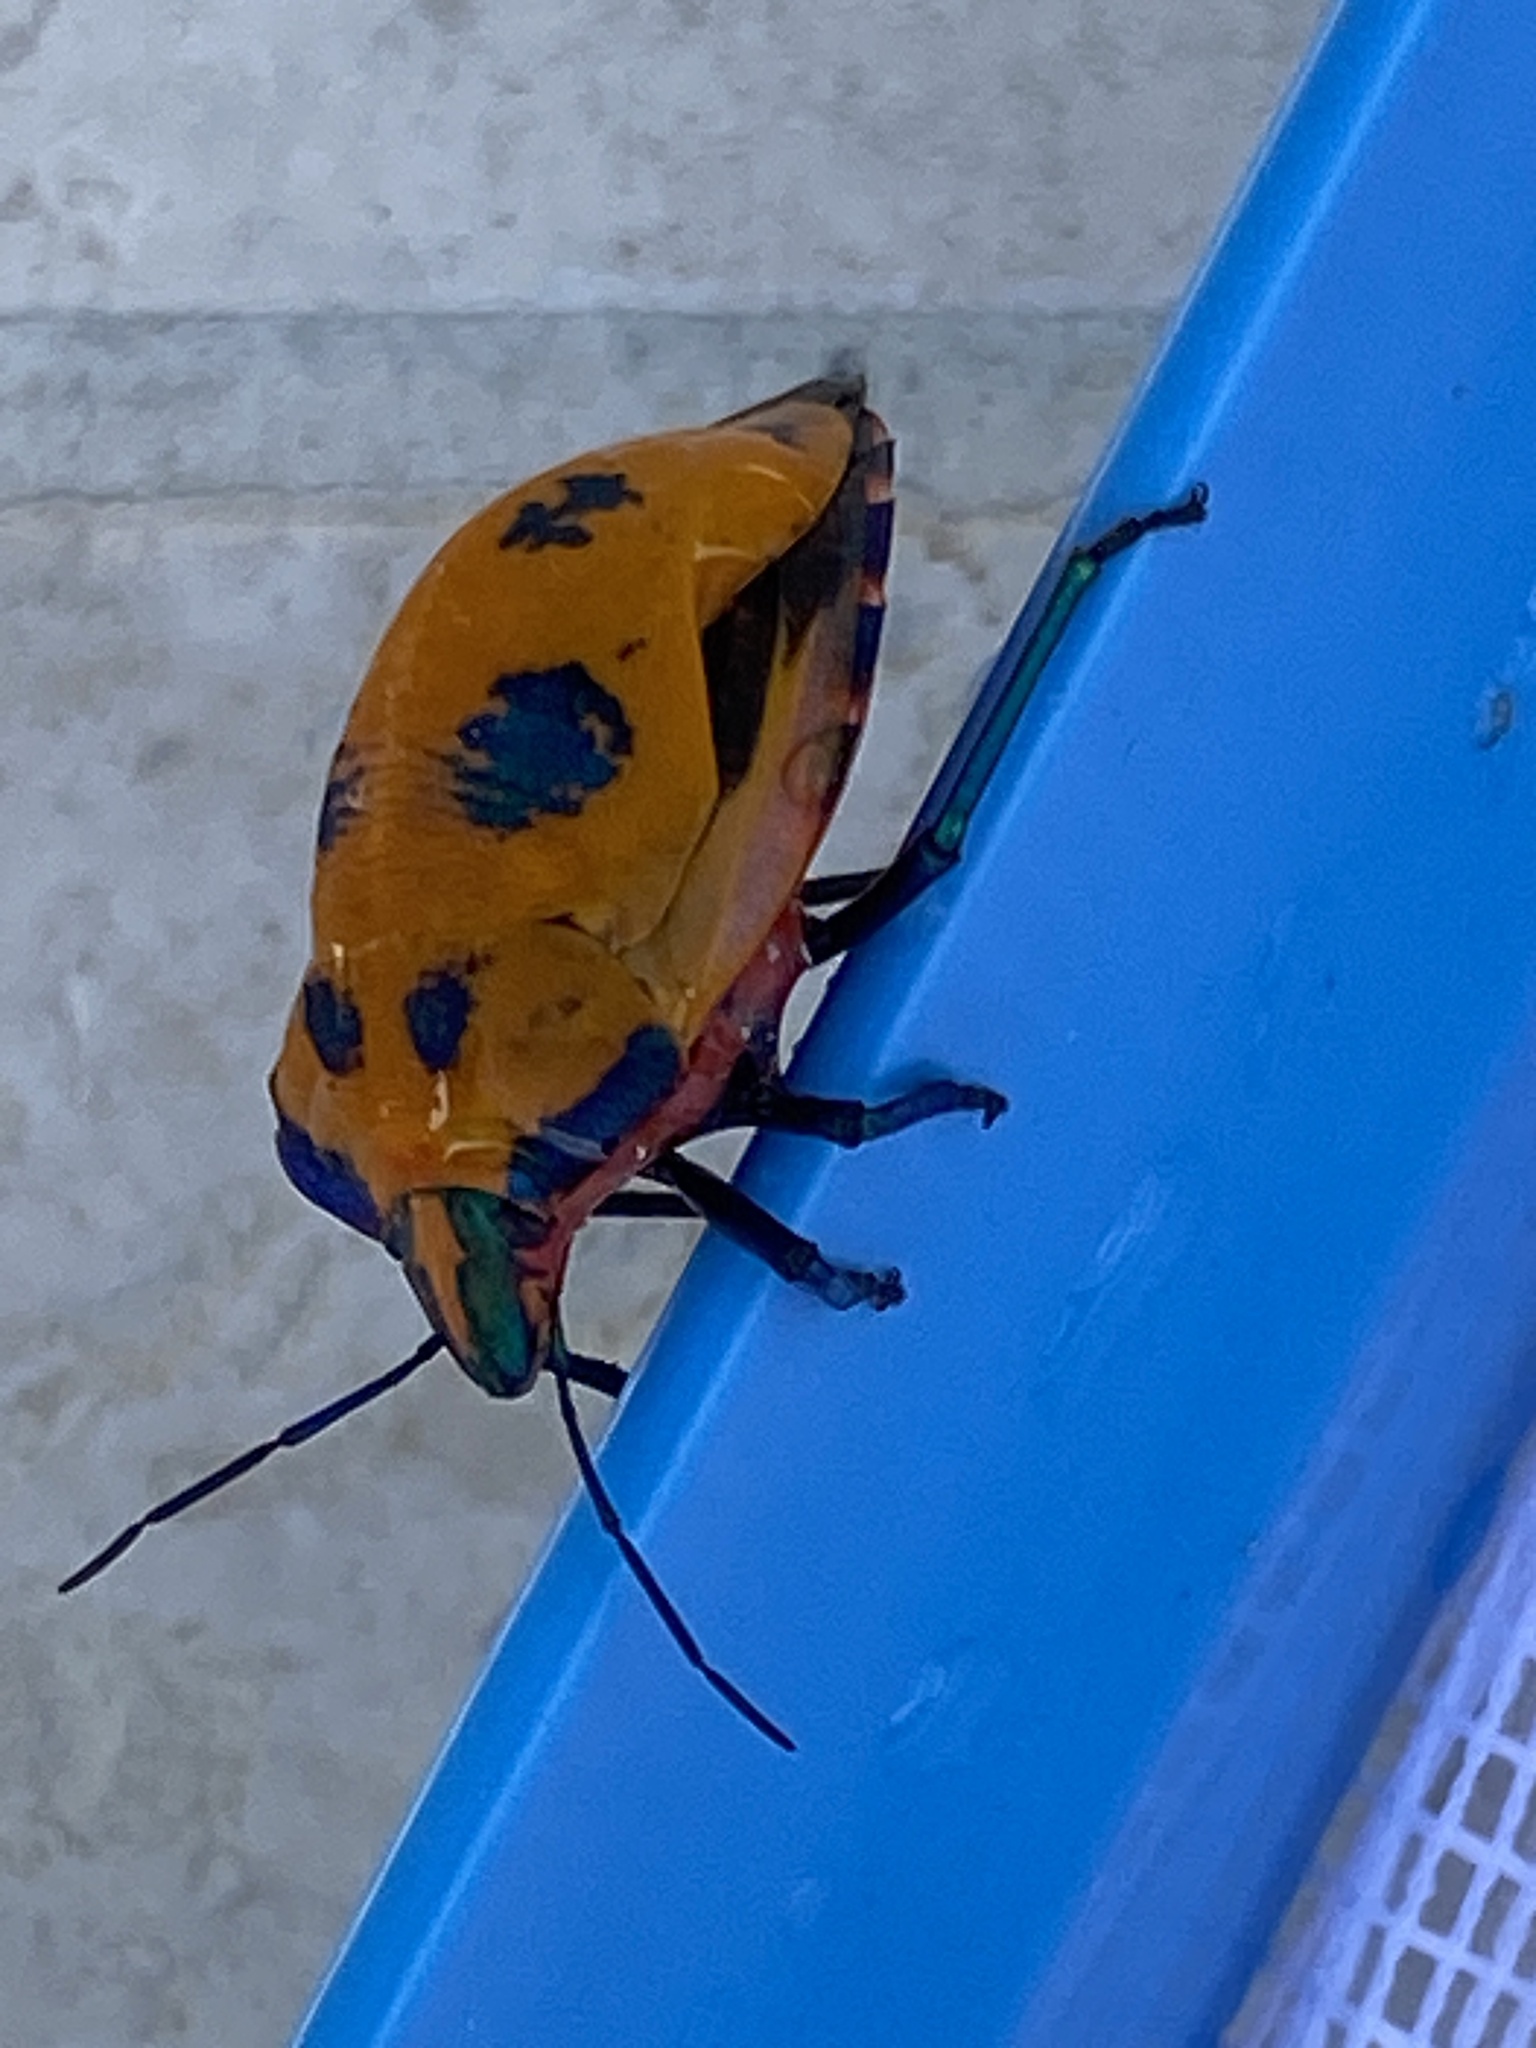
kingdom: Animalia
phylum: Arthropoda
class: Insecta
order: Hemiptera
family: Scutelleridae
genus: Tectocoris
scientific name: Tectocoris diophthalmus
